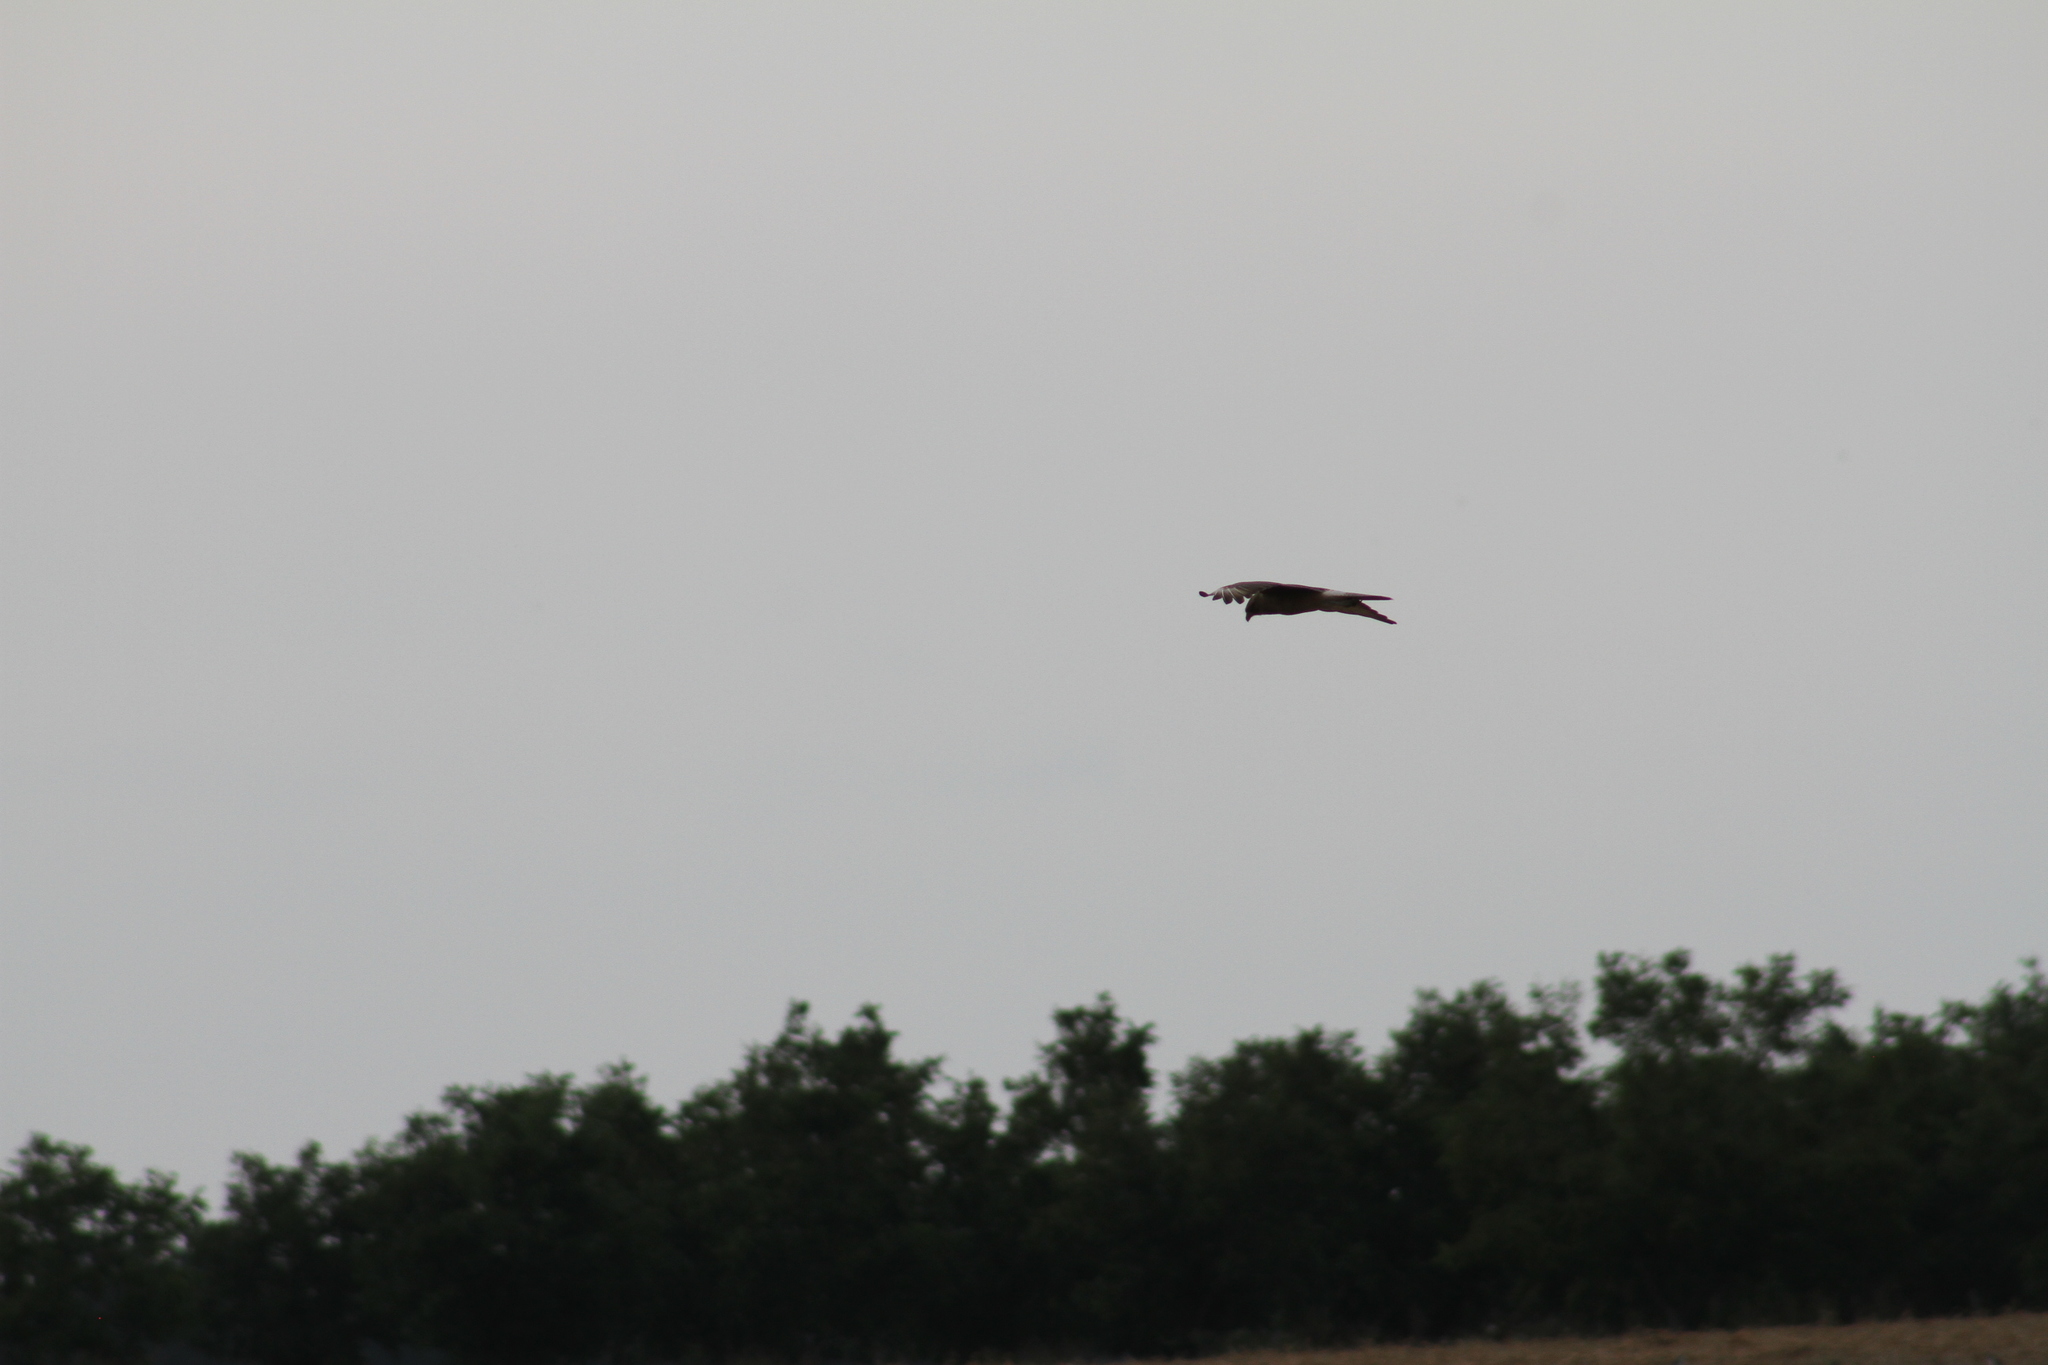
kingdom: Animalia
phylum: Chordata
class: Aves
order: Falconiformes
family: Falconidae
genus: Daptrius
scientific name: Daptrius
